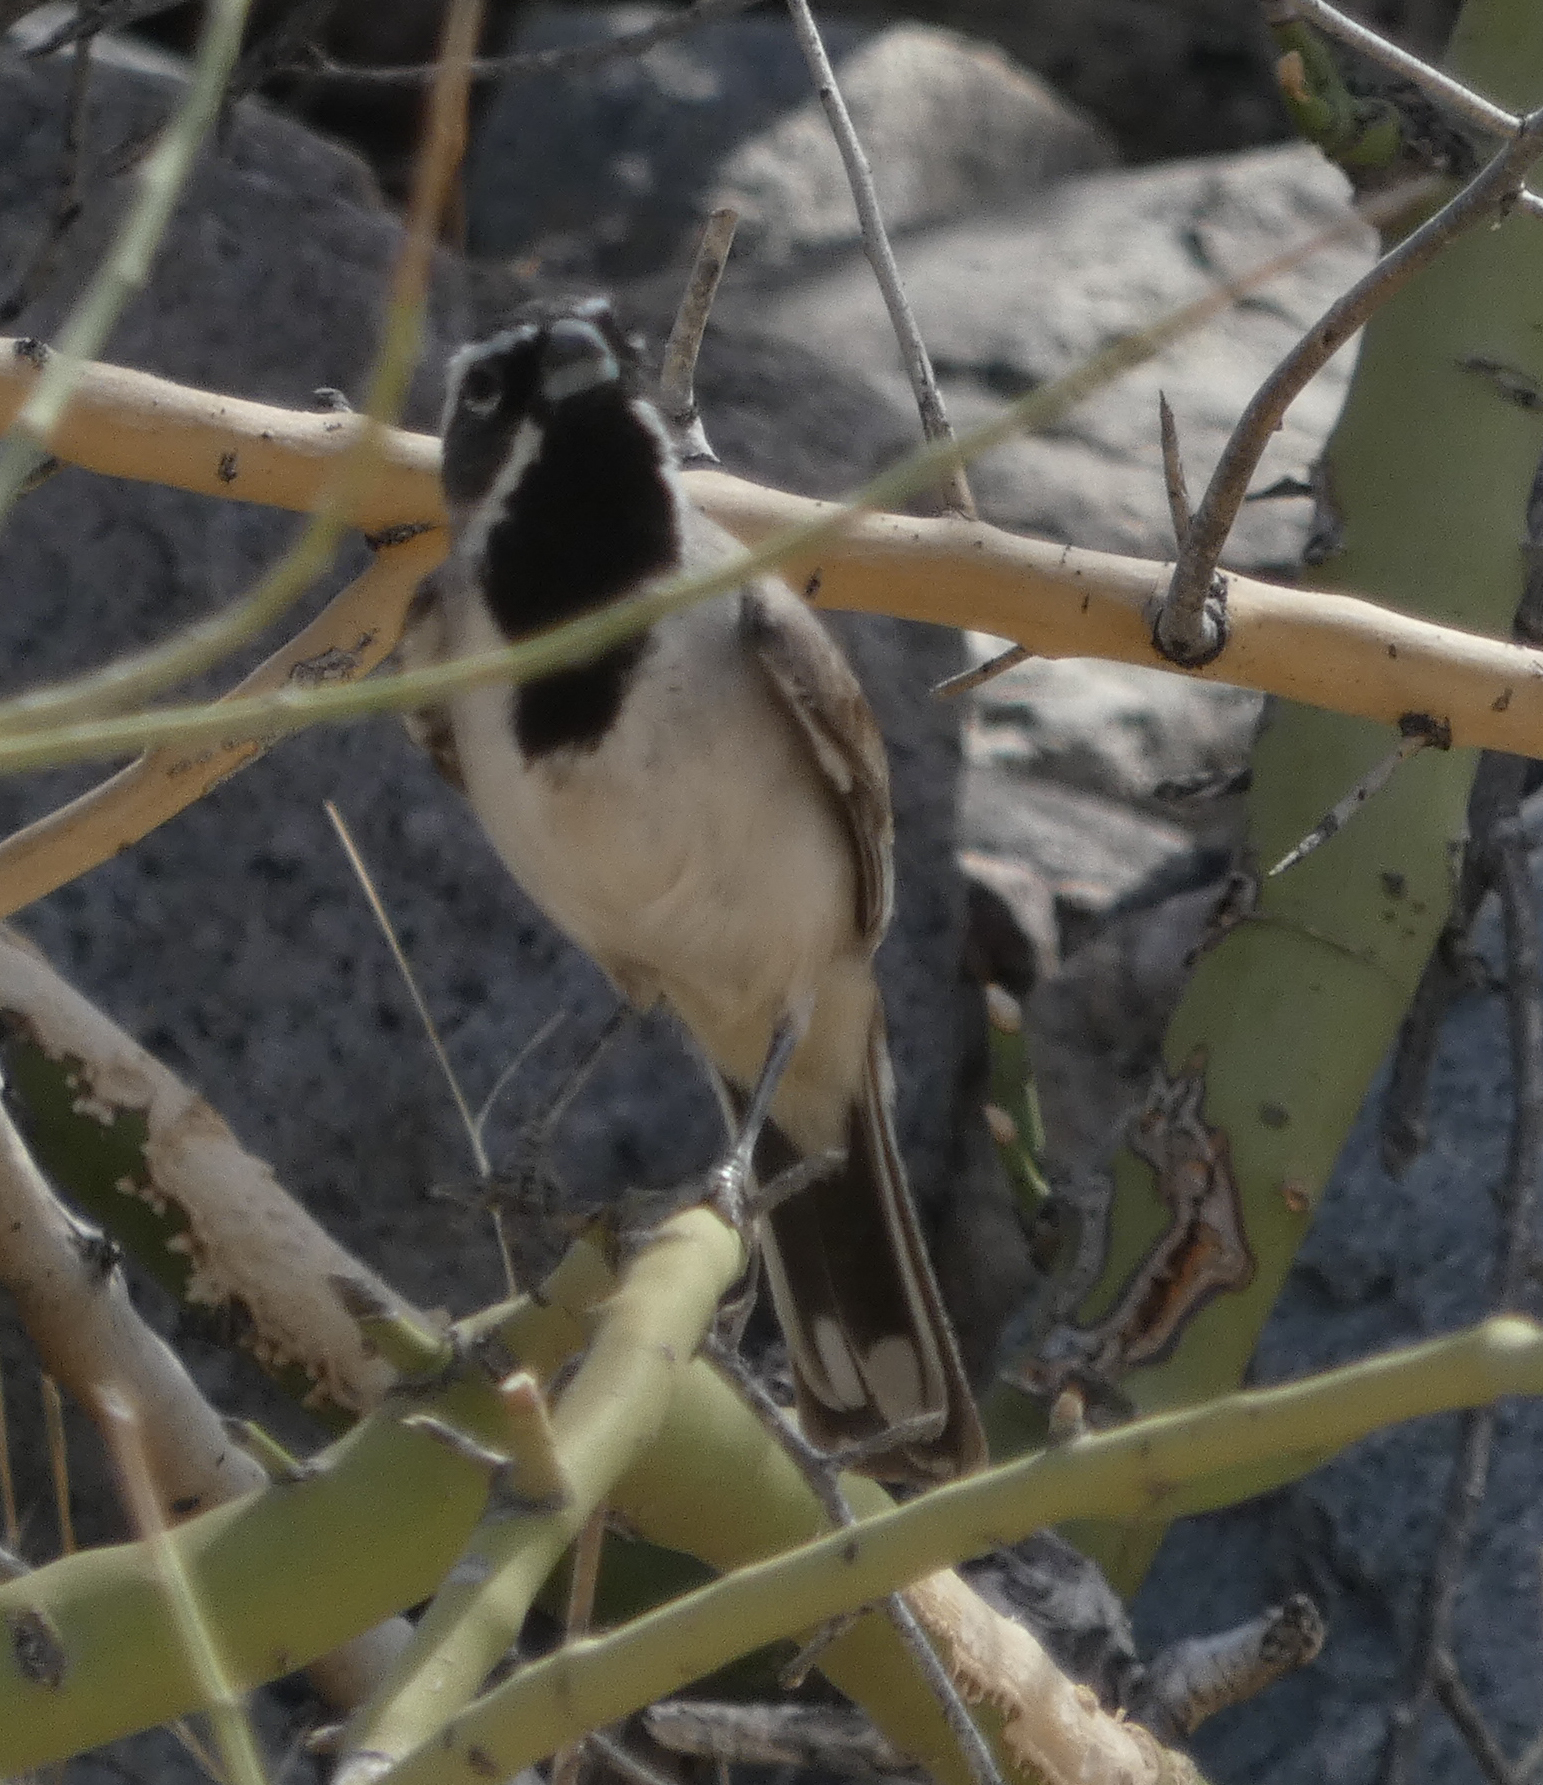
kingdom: Animalia
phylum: Chordata
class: Aves
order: Passeriformes
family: Passerellidae
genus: Amphispiza
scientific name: Amphispiza bilineata
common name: Black-throated sparrow
